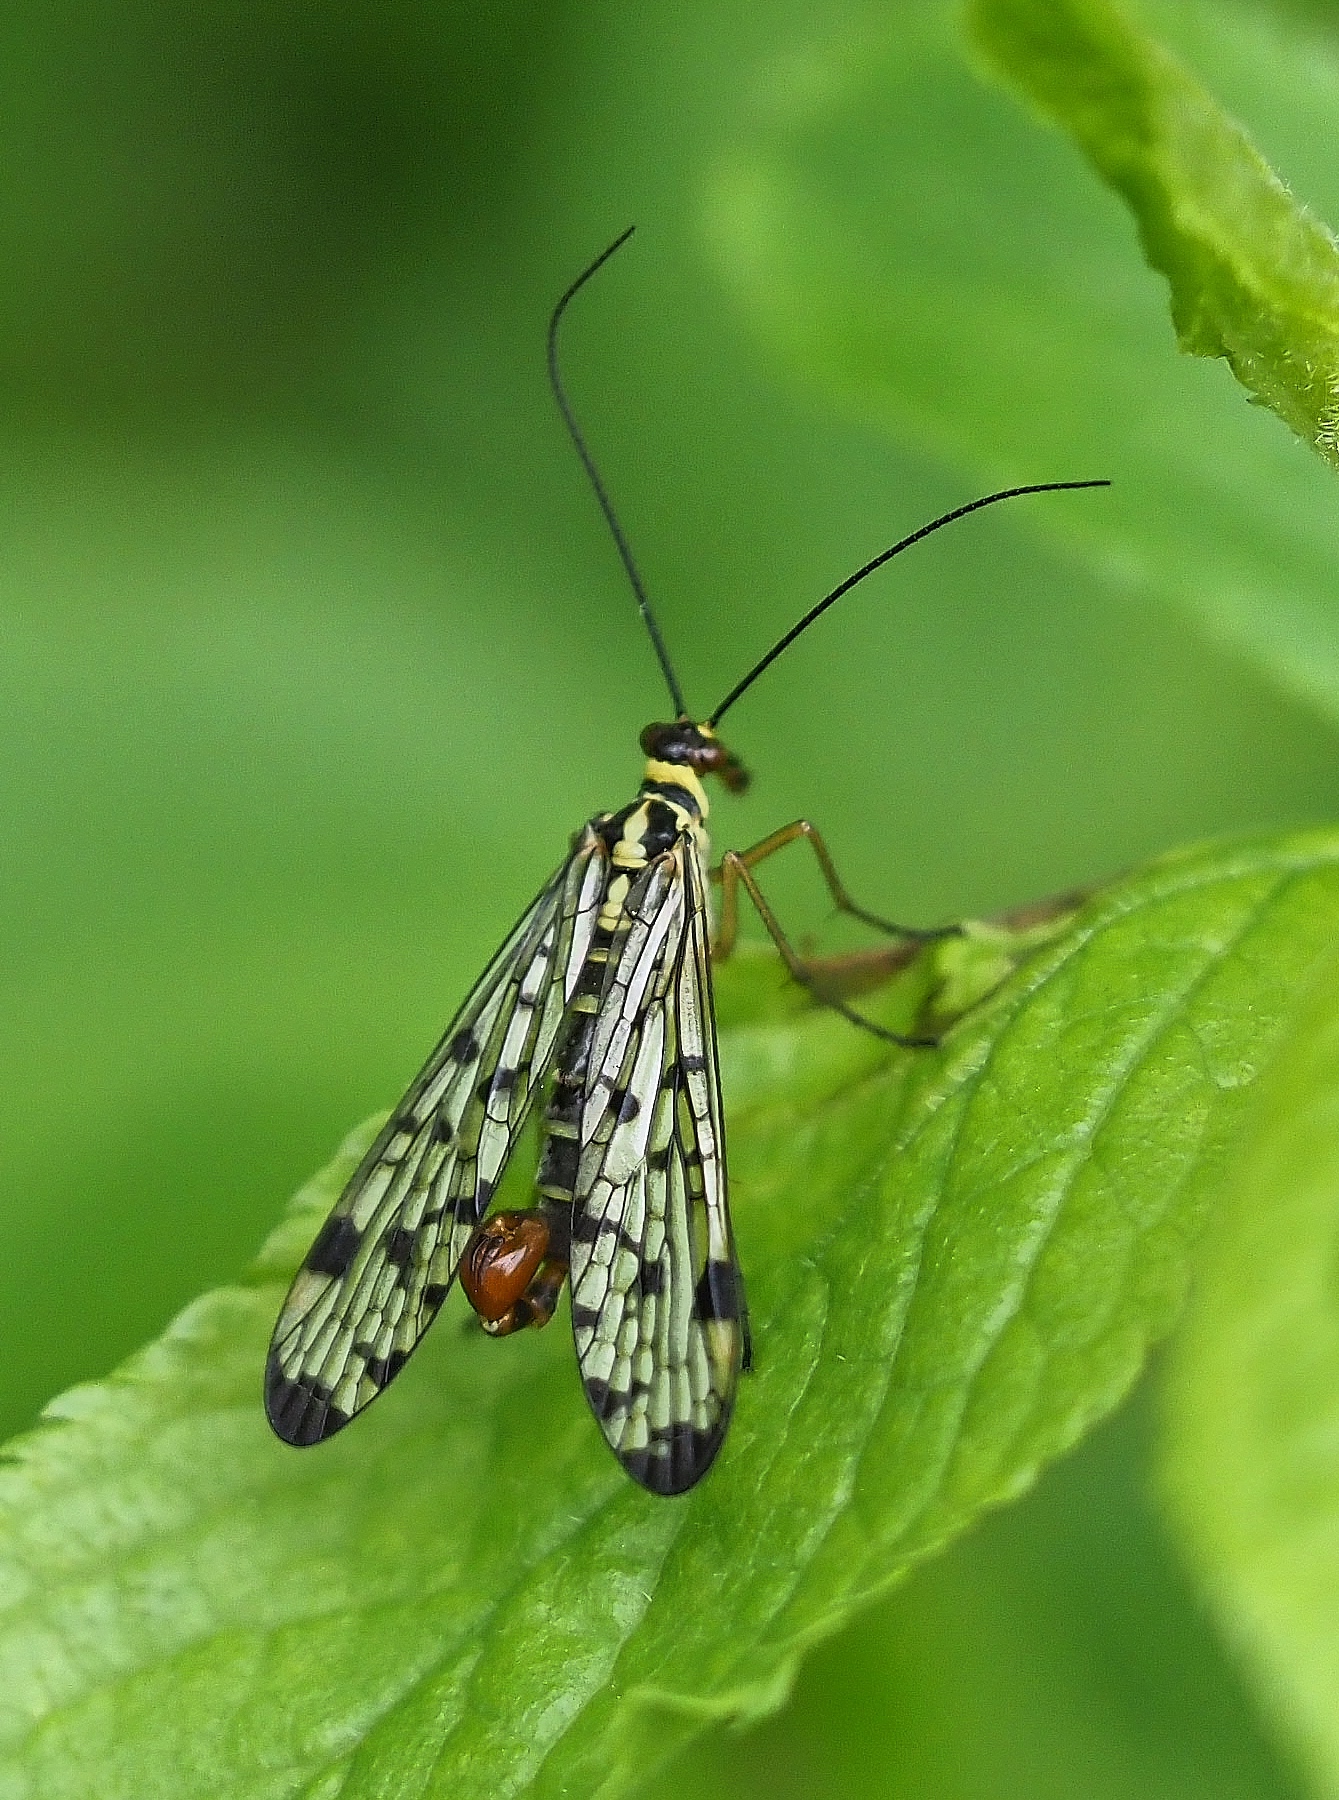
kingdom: Animalia
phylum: Arthropoda
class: Insecta
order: Mecoptera
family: Panorpidae
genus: Panorpa
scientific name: Panorpa germanica
